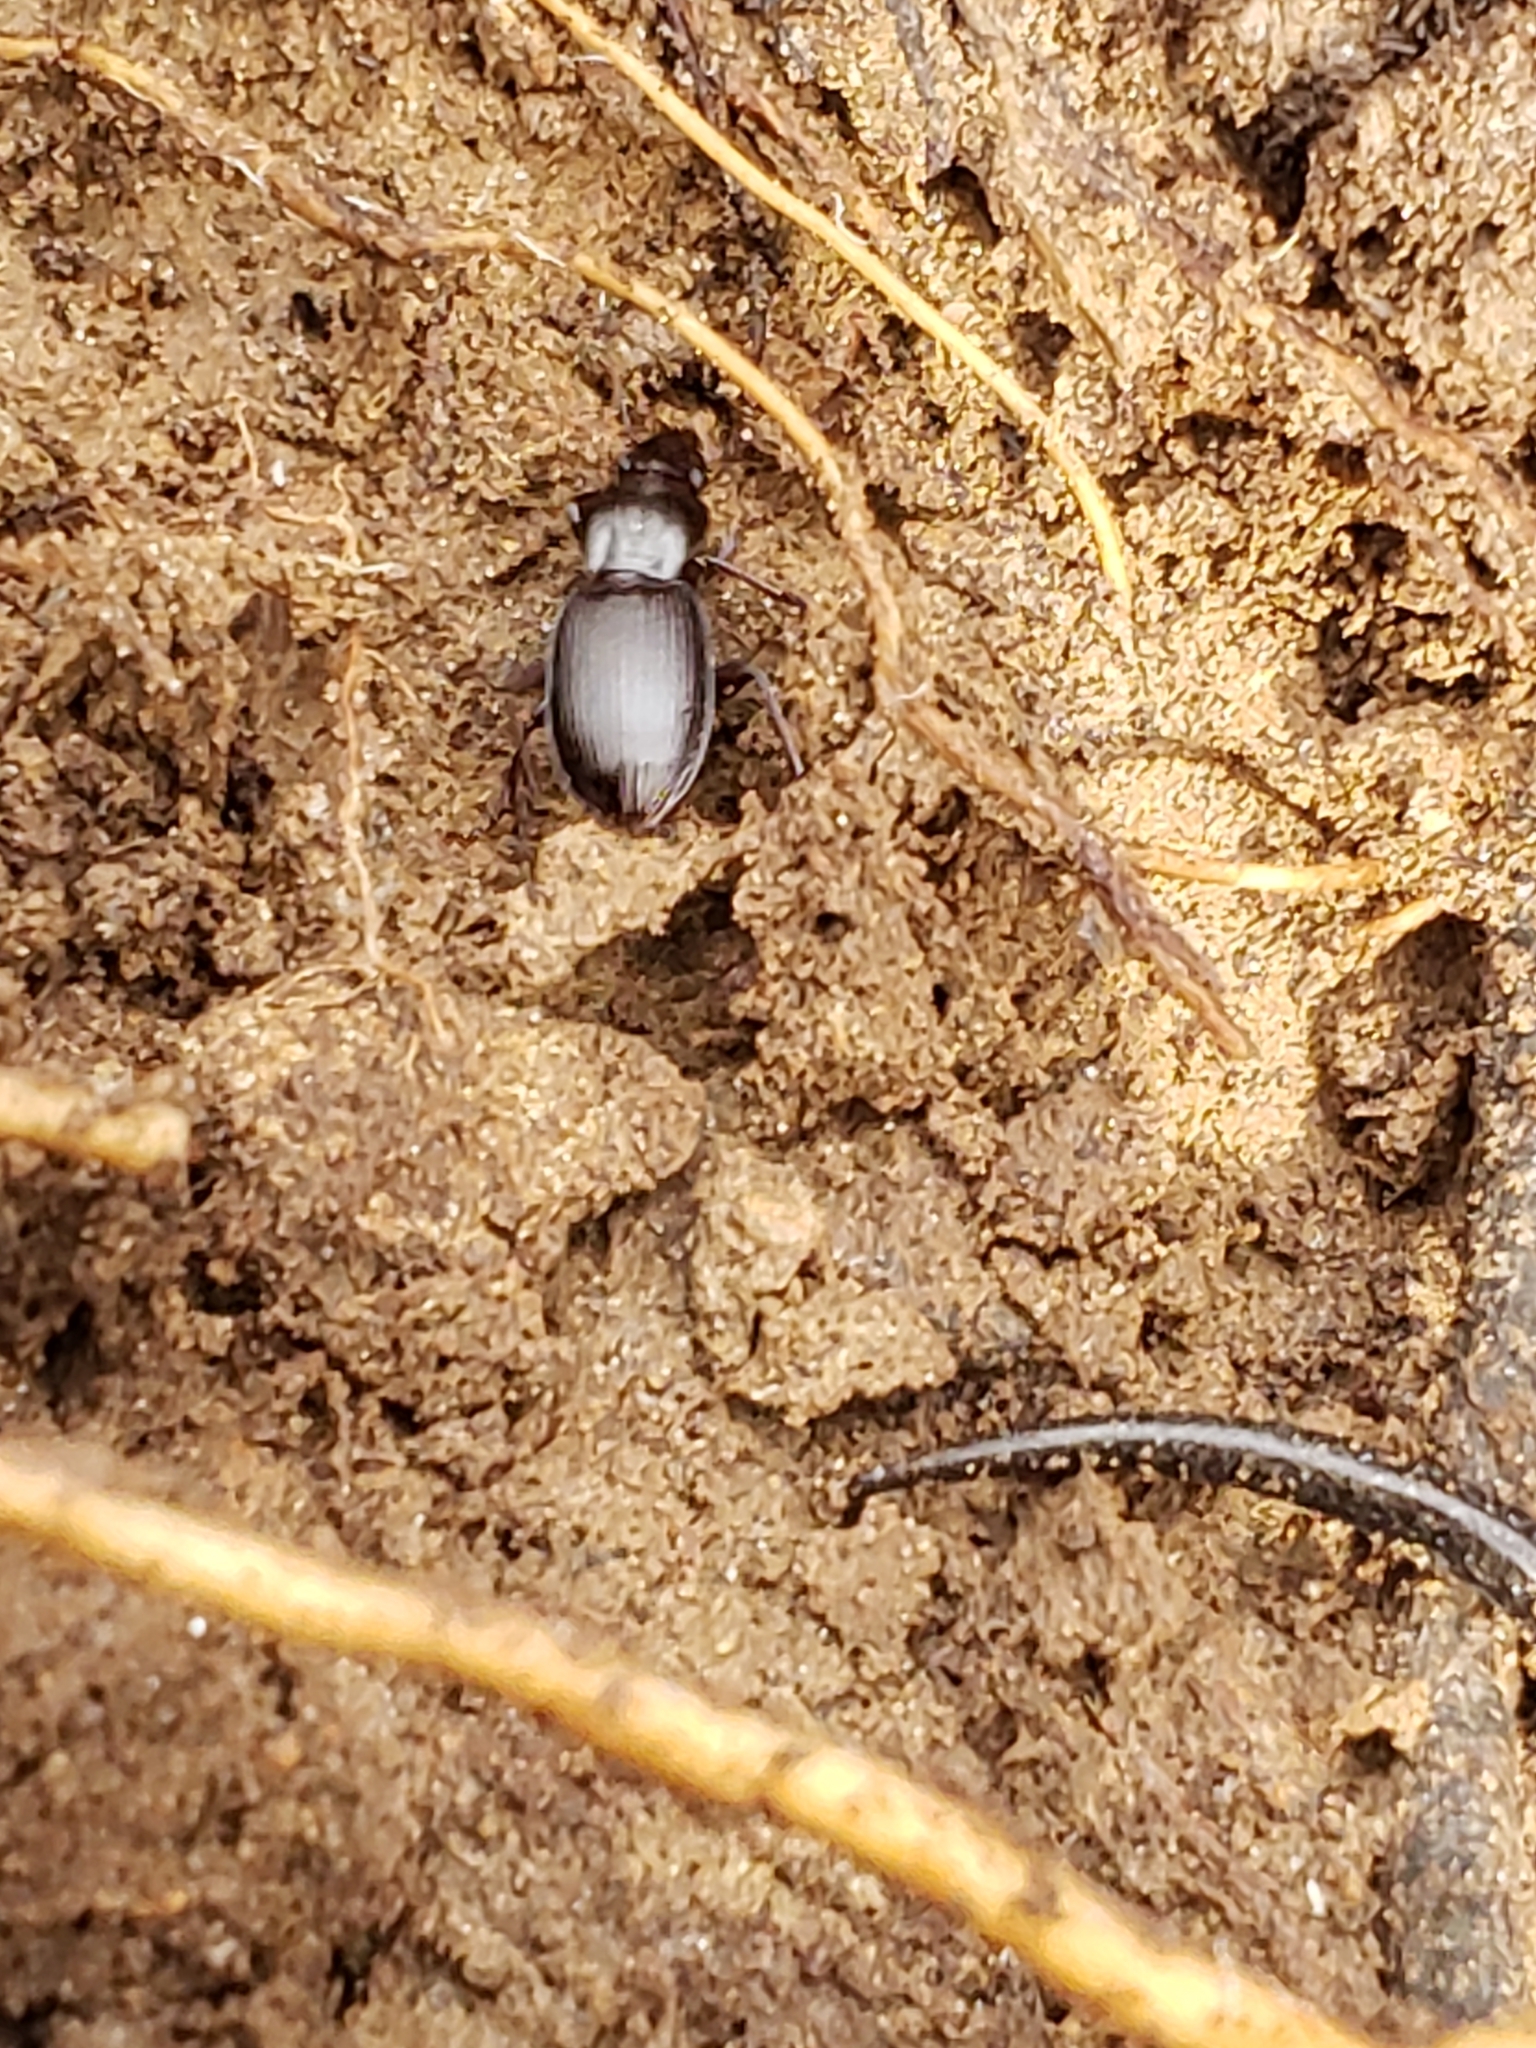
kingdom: Animalia
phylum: Arthropoda
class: Insecta
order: Coleoptera
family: Carabidae
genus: Gastrellarius
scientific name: Gastrellarius honestus
